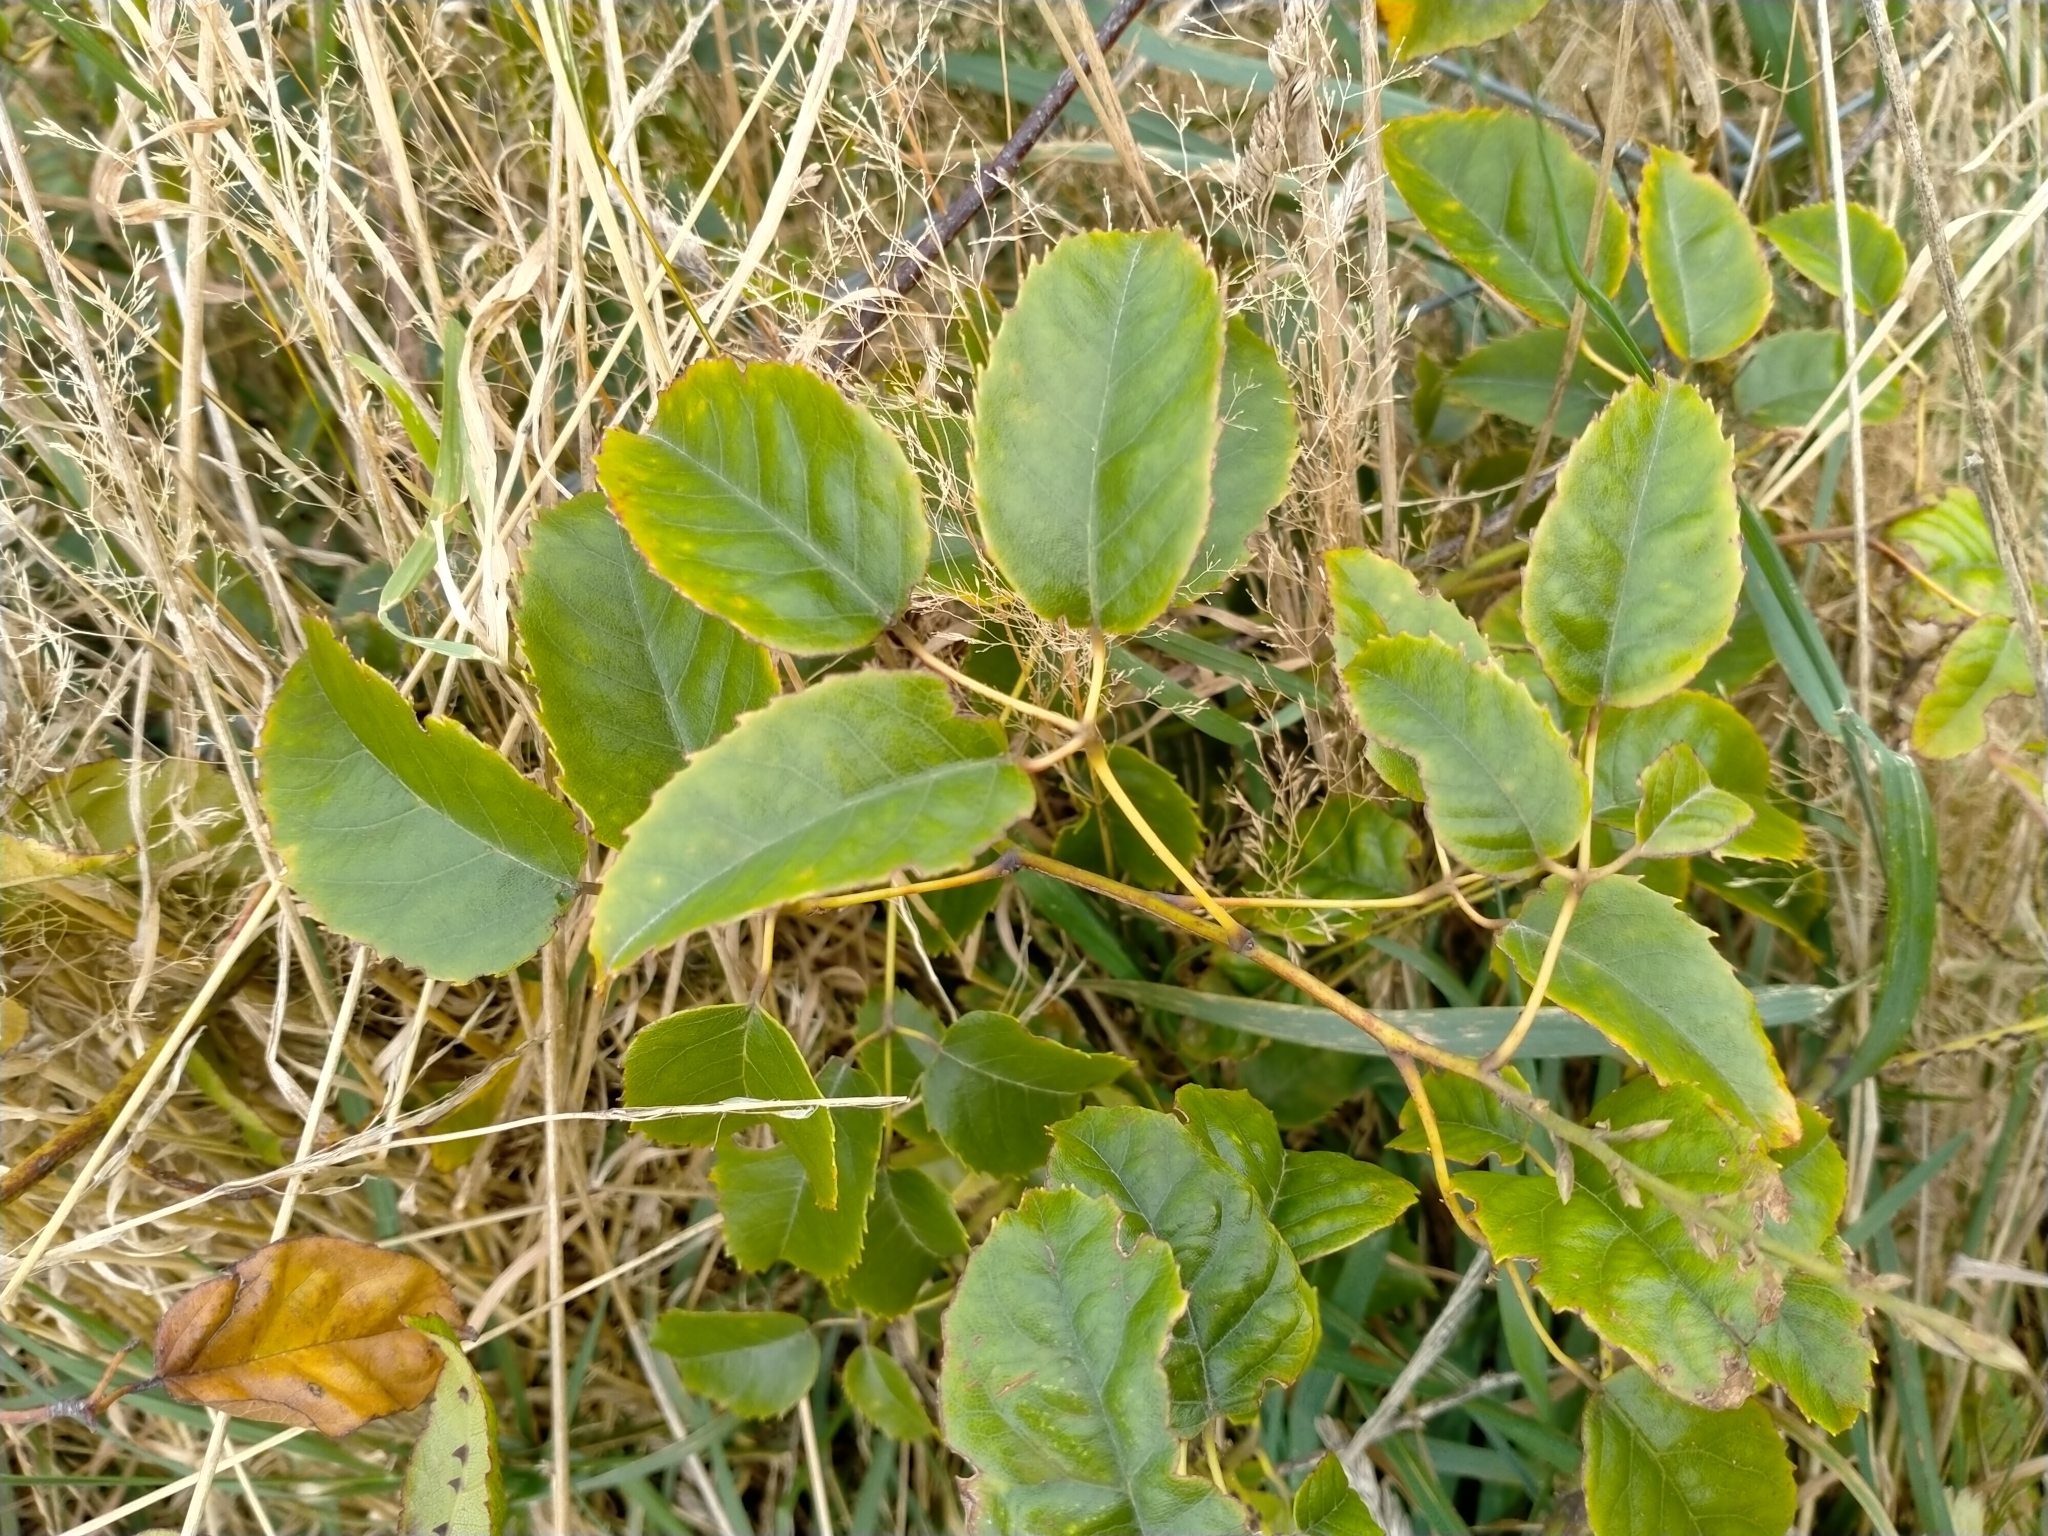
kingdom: Plantae
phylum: Tracheophyta
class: Magnoliopsida
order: Rosales
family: Rosaceae
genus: Rubus
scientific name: Rubus cissoides
